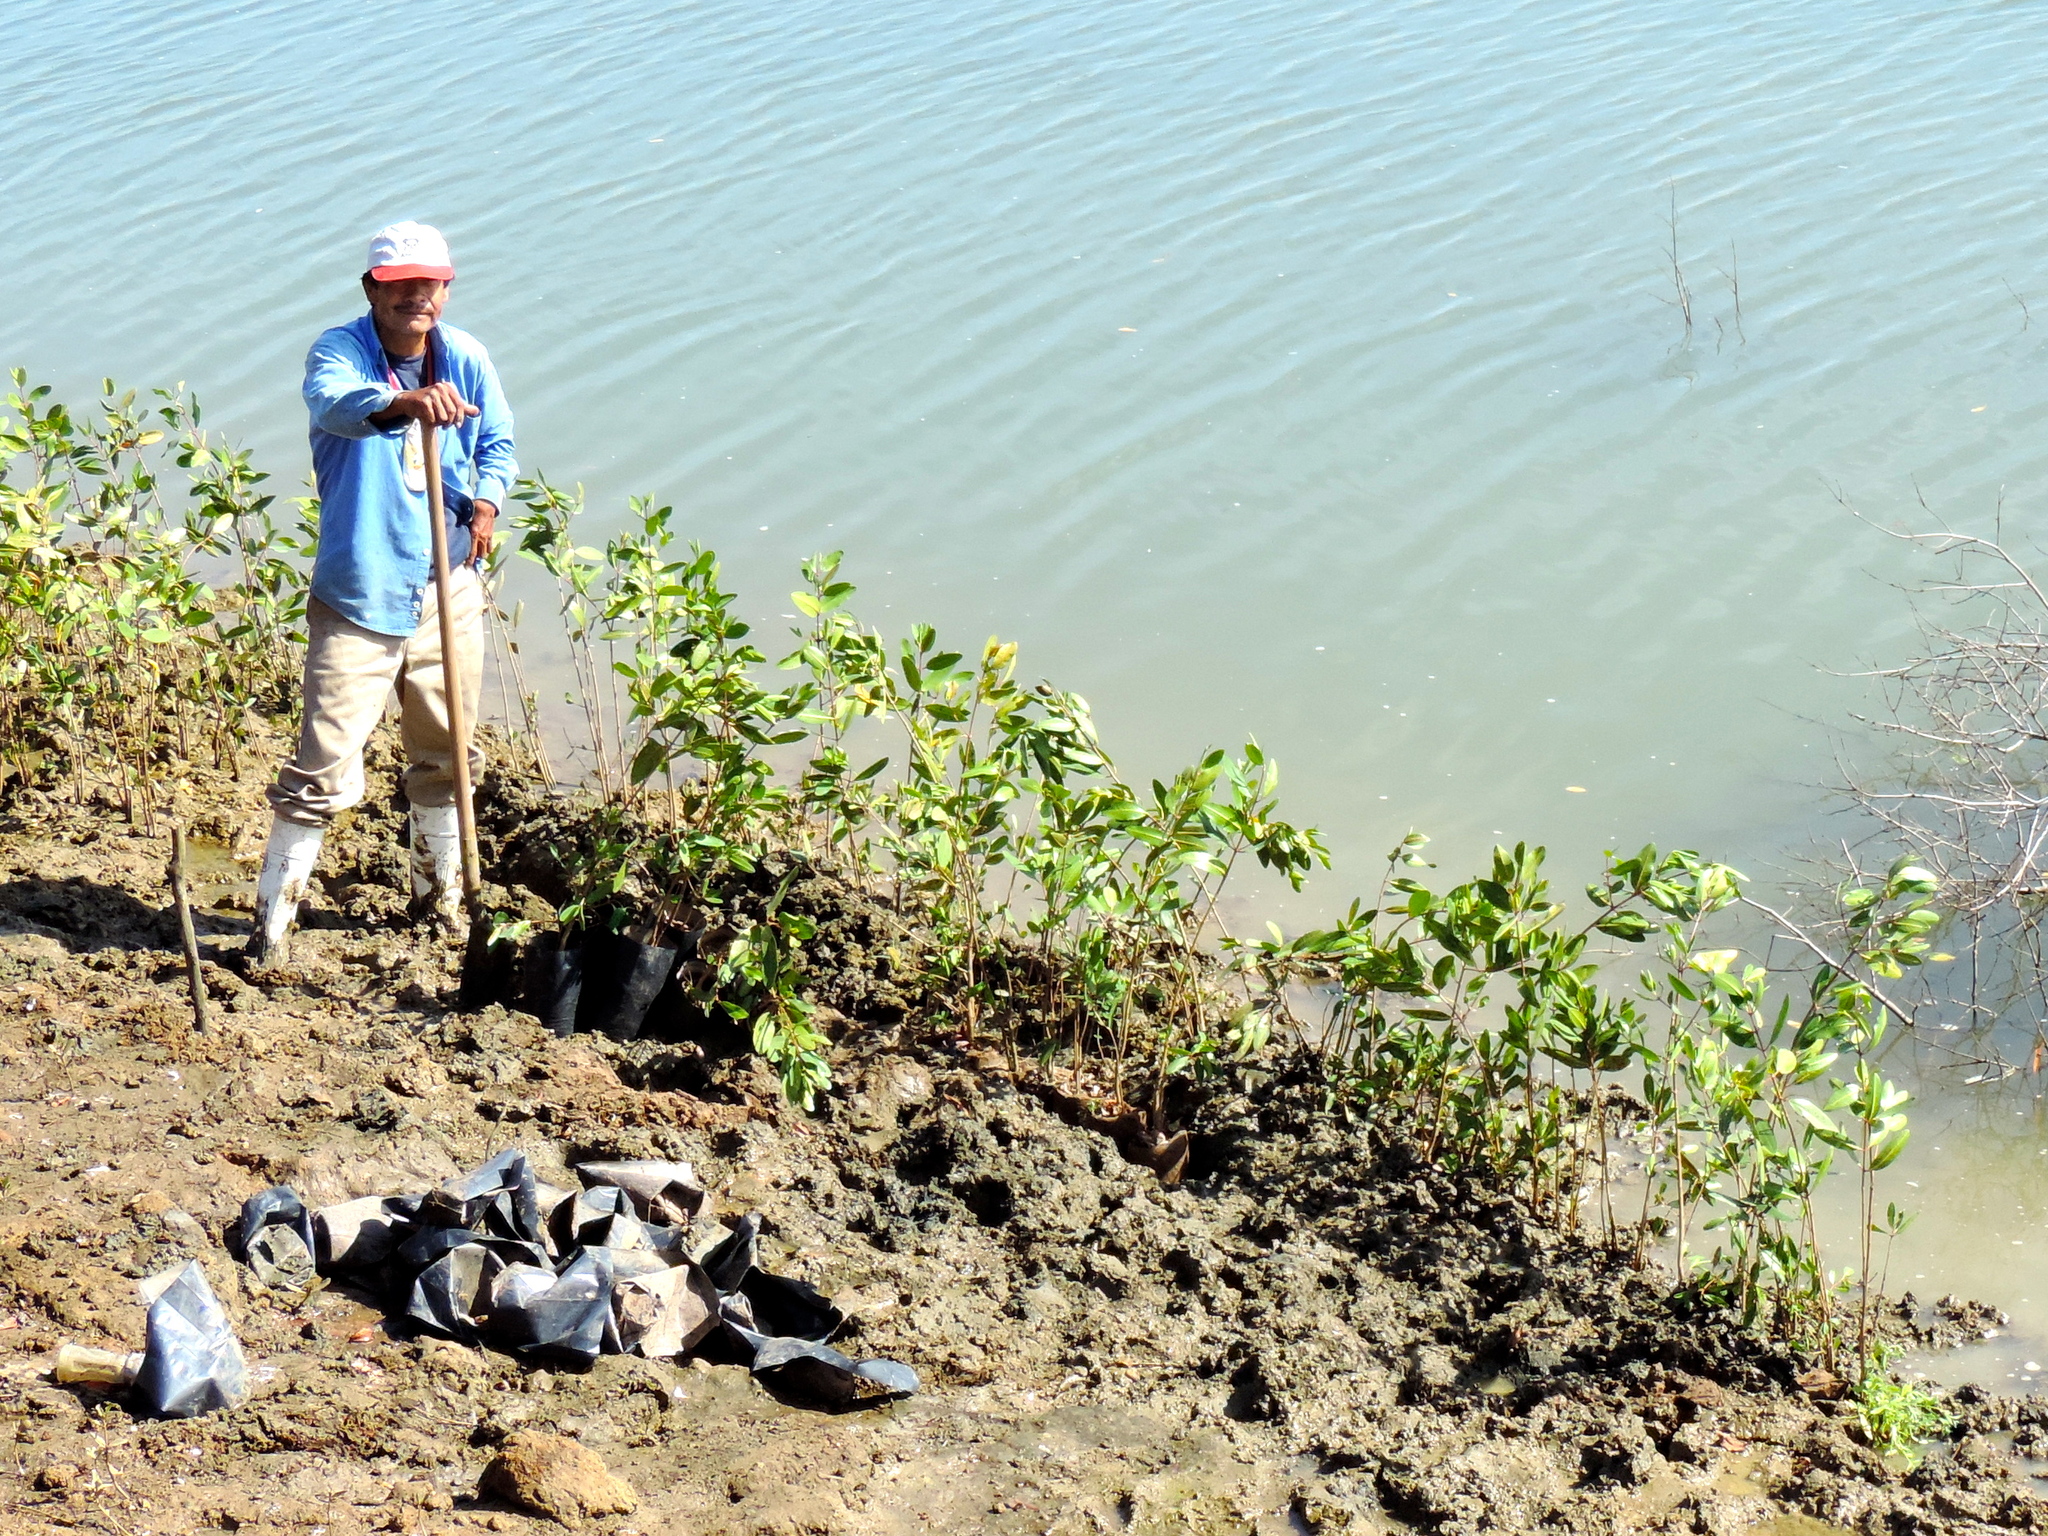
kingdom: Plantae
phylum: Tracheophyta
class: Magnoliopsida
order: Myrtales
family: Combretaceae
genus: Laguncularia
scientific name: Laguncularia racemosa
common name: White mangrove
